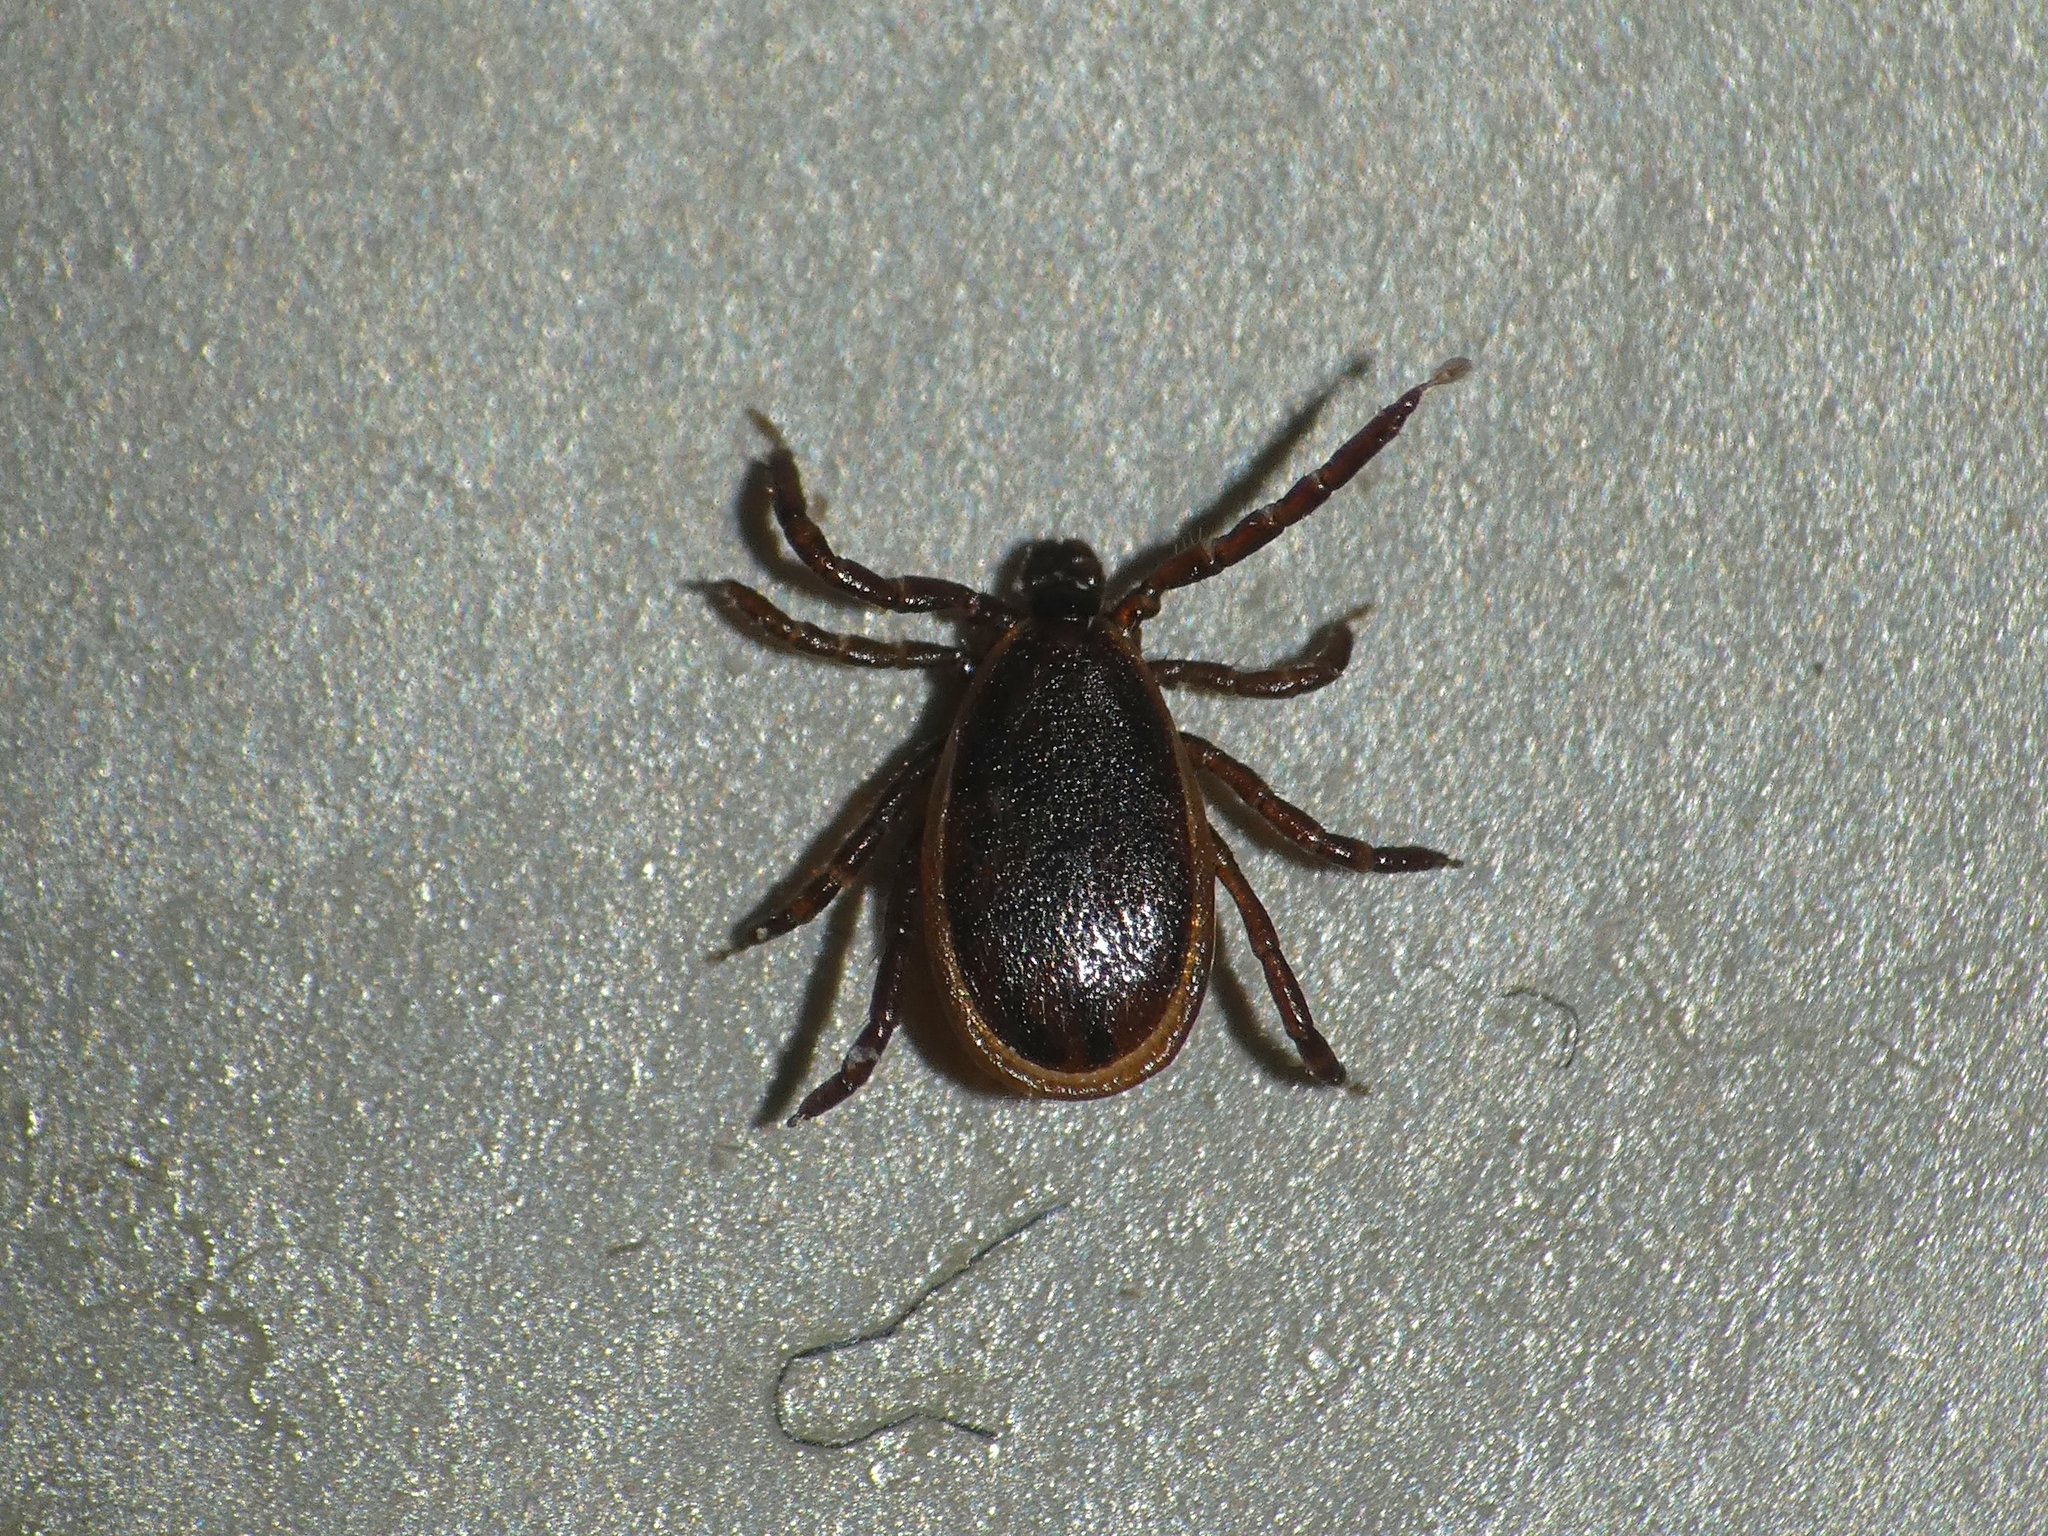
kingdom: Animalia
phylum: Arthropoda
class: Arachnida
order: Ixodida
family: Ixodidae
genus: Ixodes
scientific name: Ixodes scapularis
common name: Black legged tick
